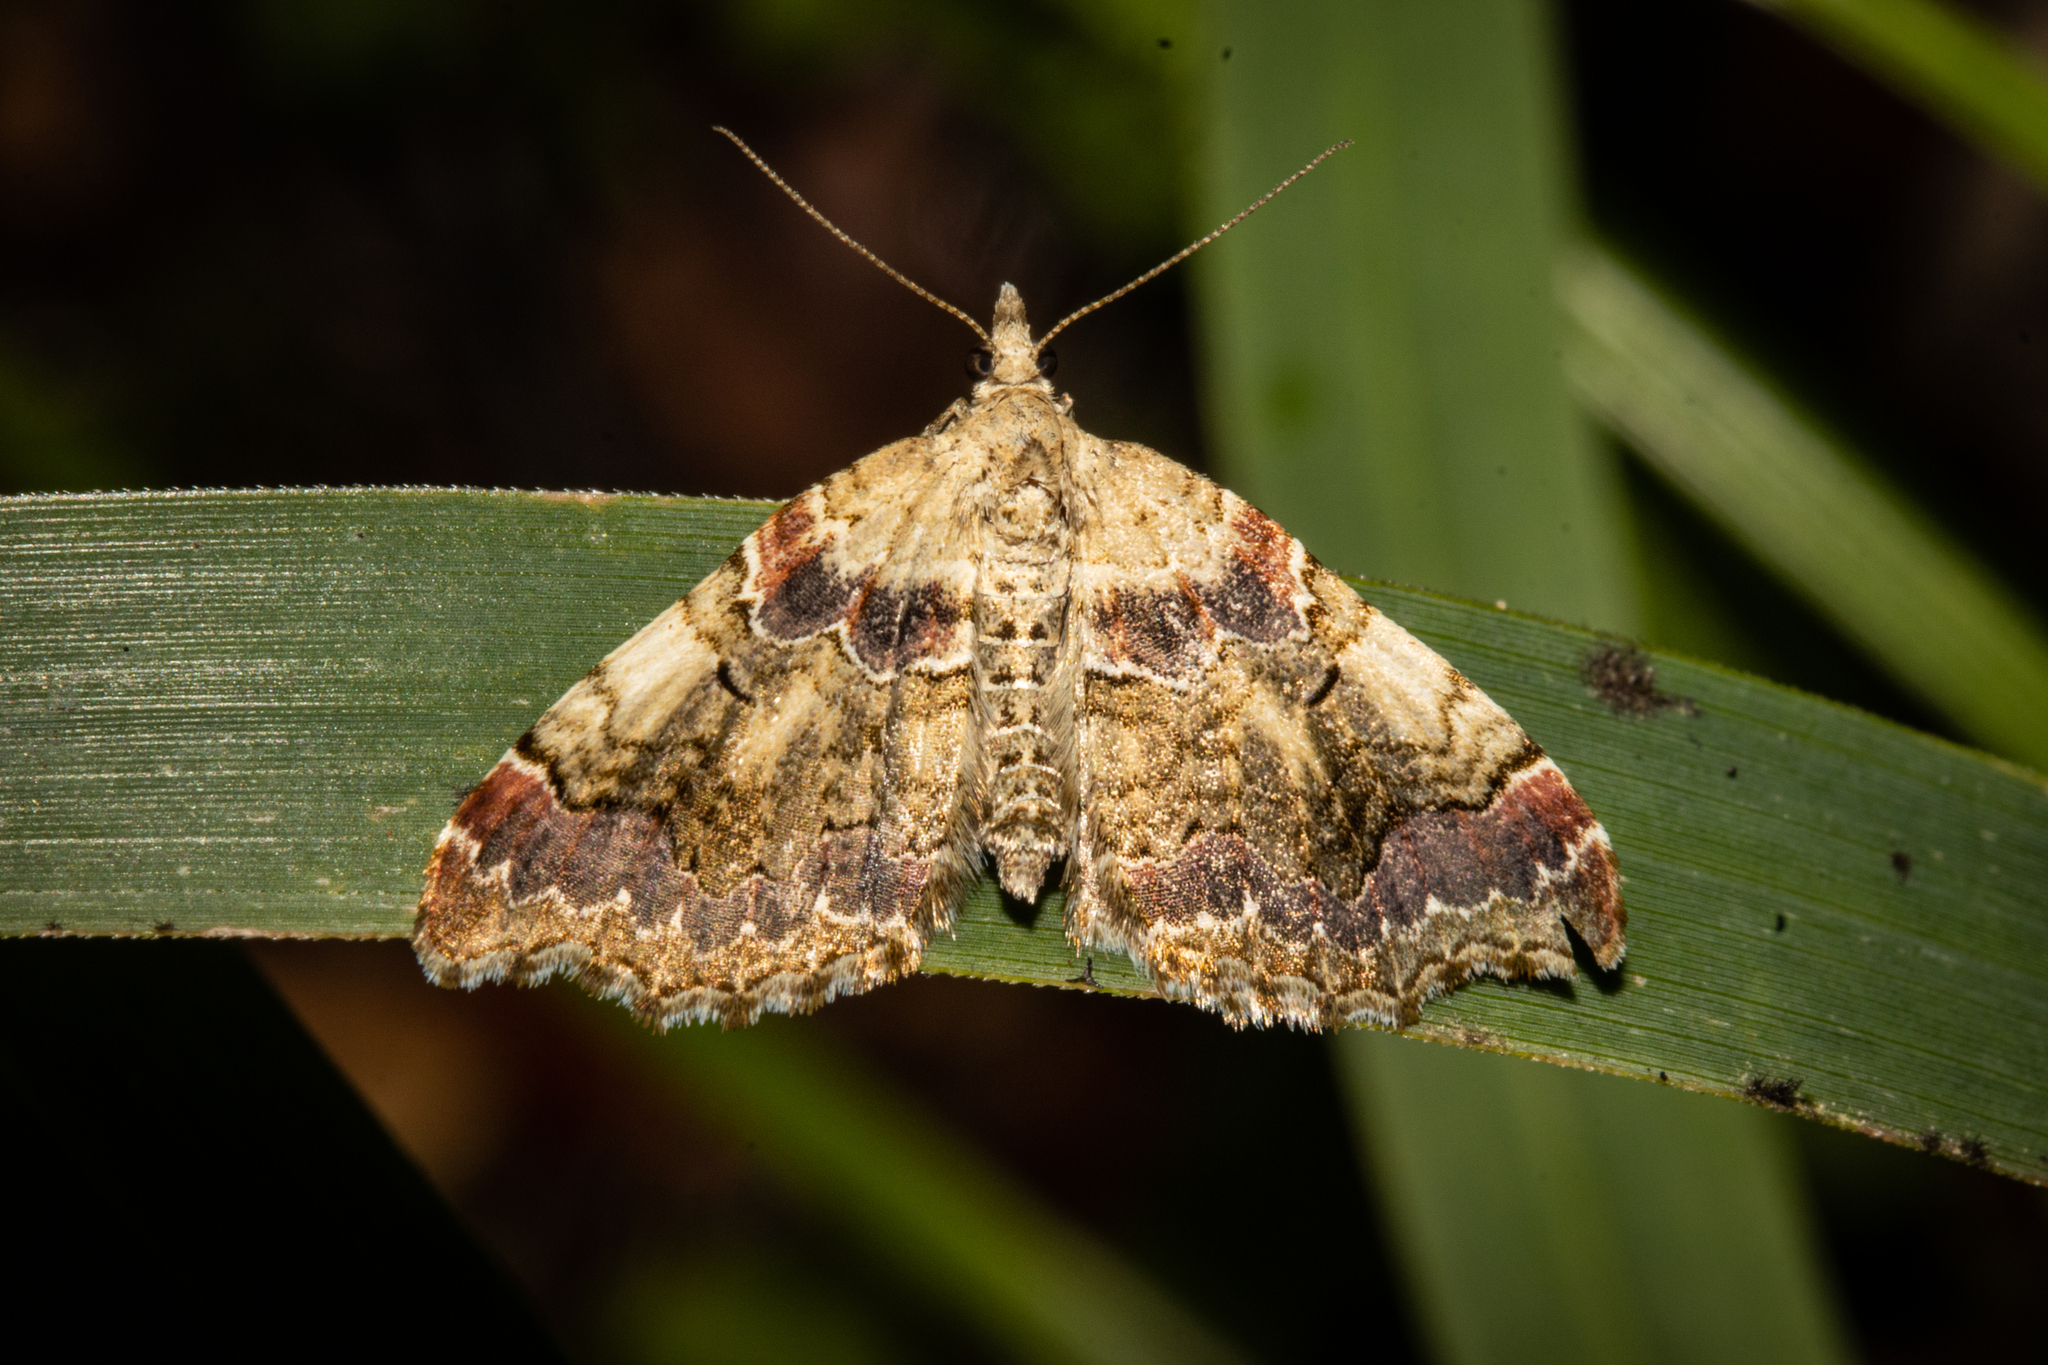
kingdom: Animalia
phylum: Arthropoda
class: Insecta
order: Lepidoptera
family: Geometridae
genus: Helastia
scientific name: Helastia cymozeucta
